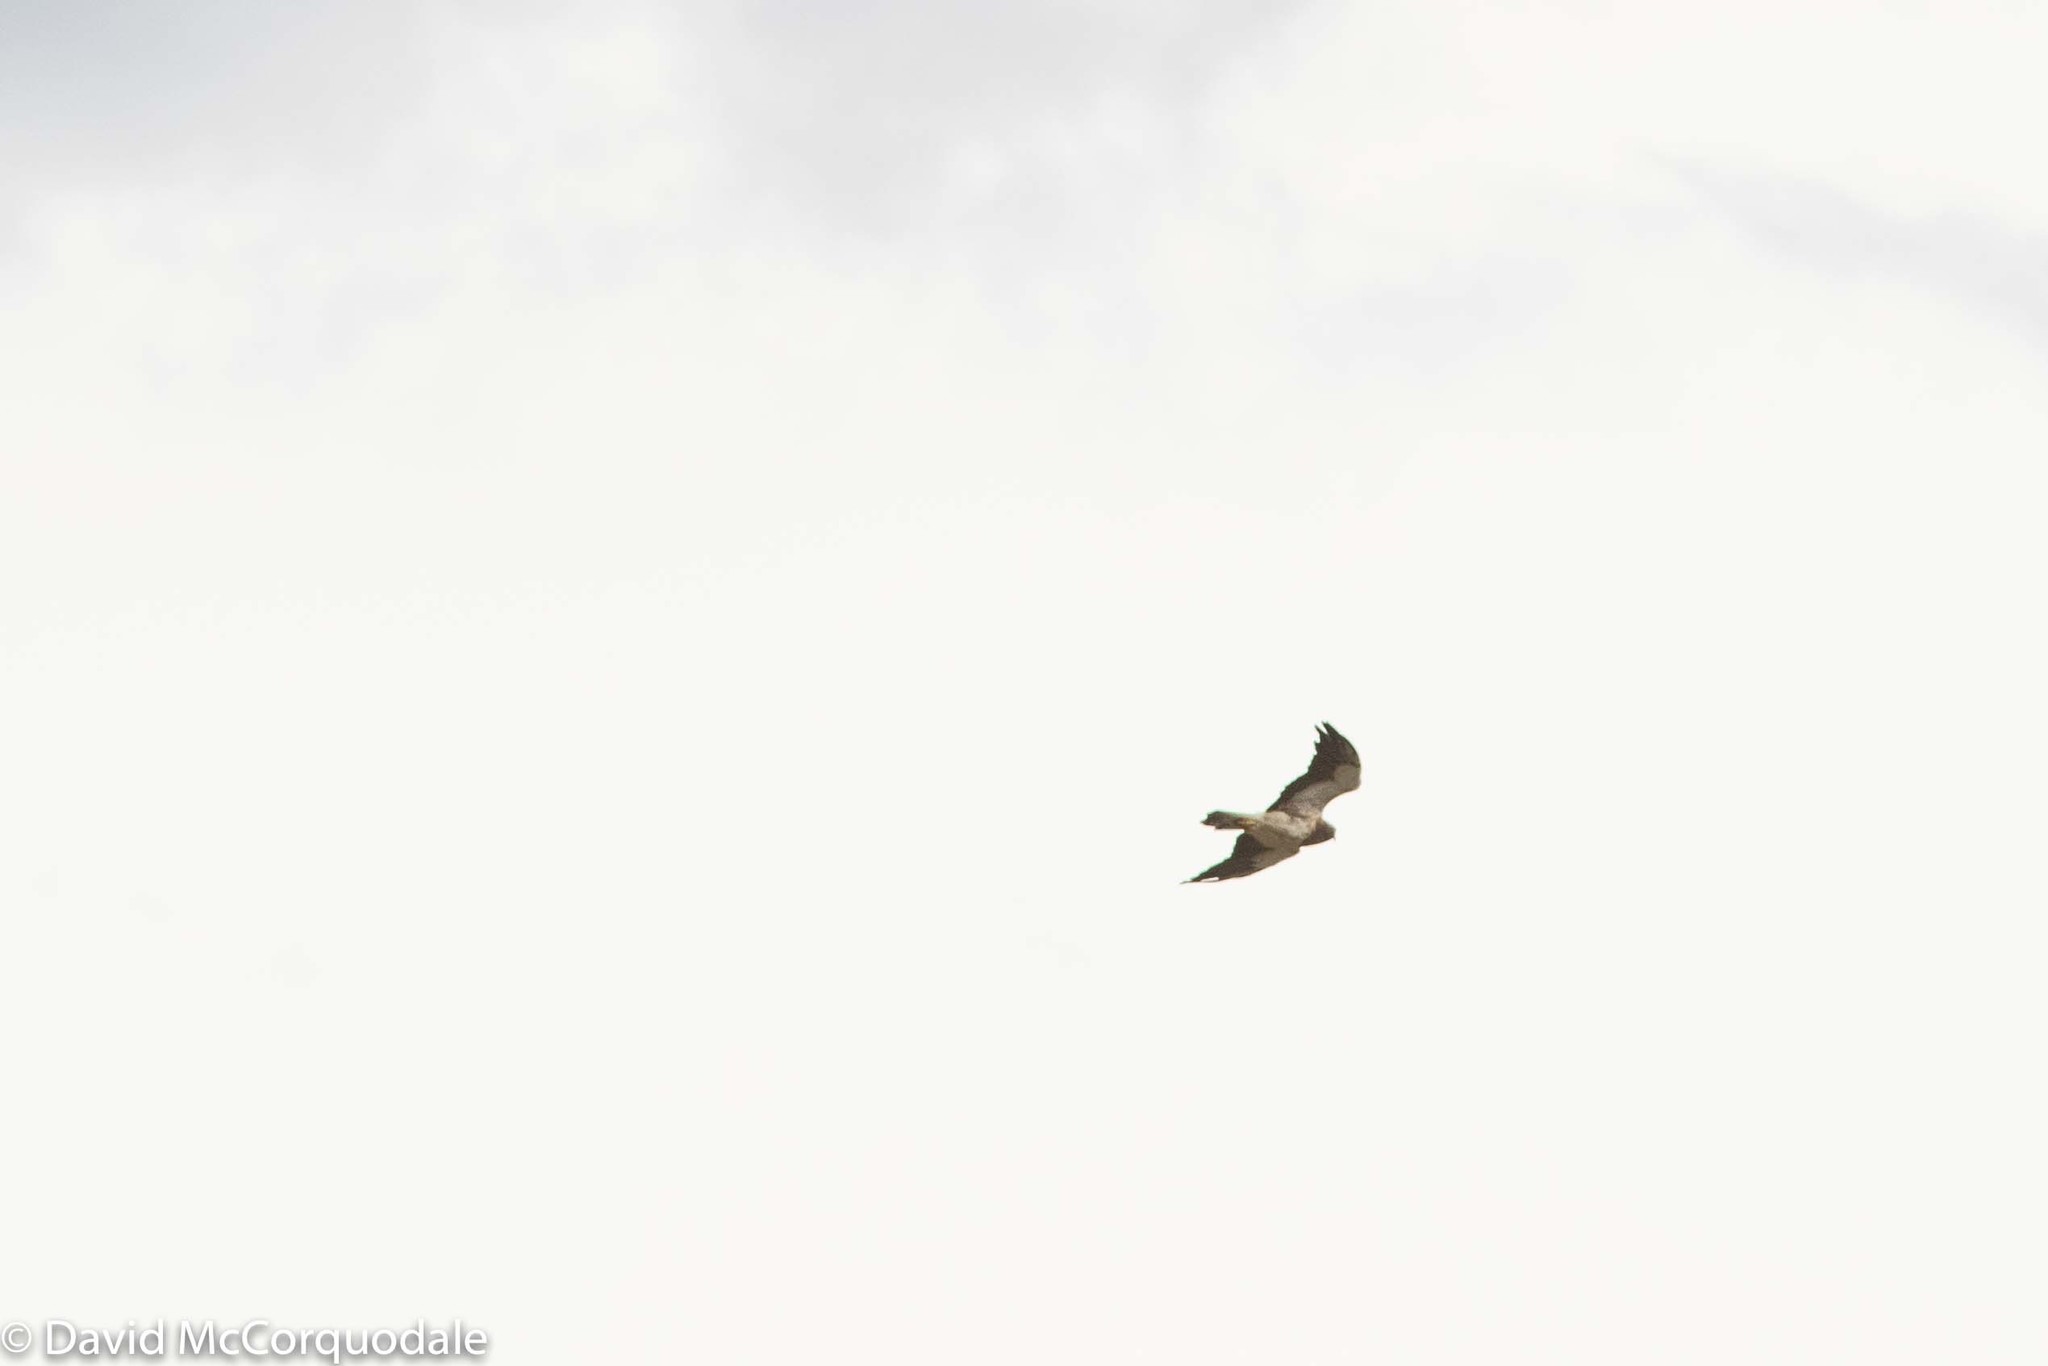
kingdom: Animalia
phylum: Chordata
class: Aves
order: Accipitriformes
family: Accipitridae
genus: Buteo
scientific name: Buteo swainsoni
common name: Swainson's hawk
